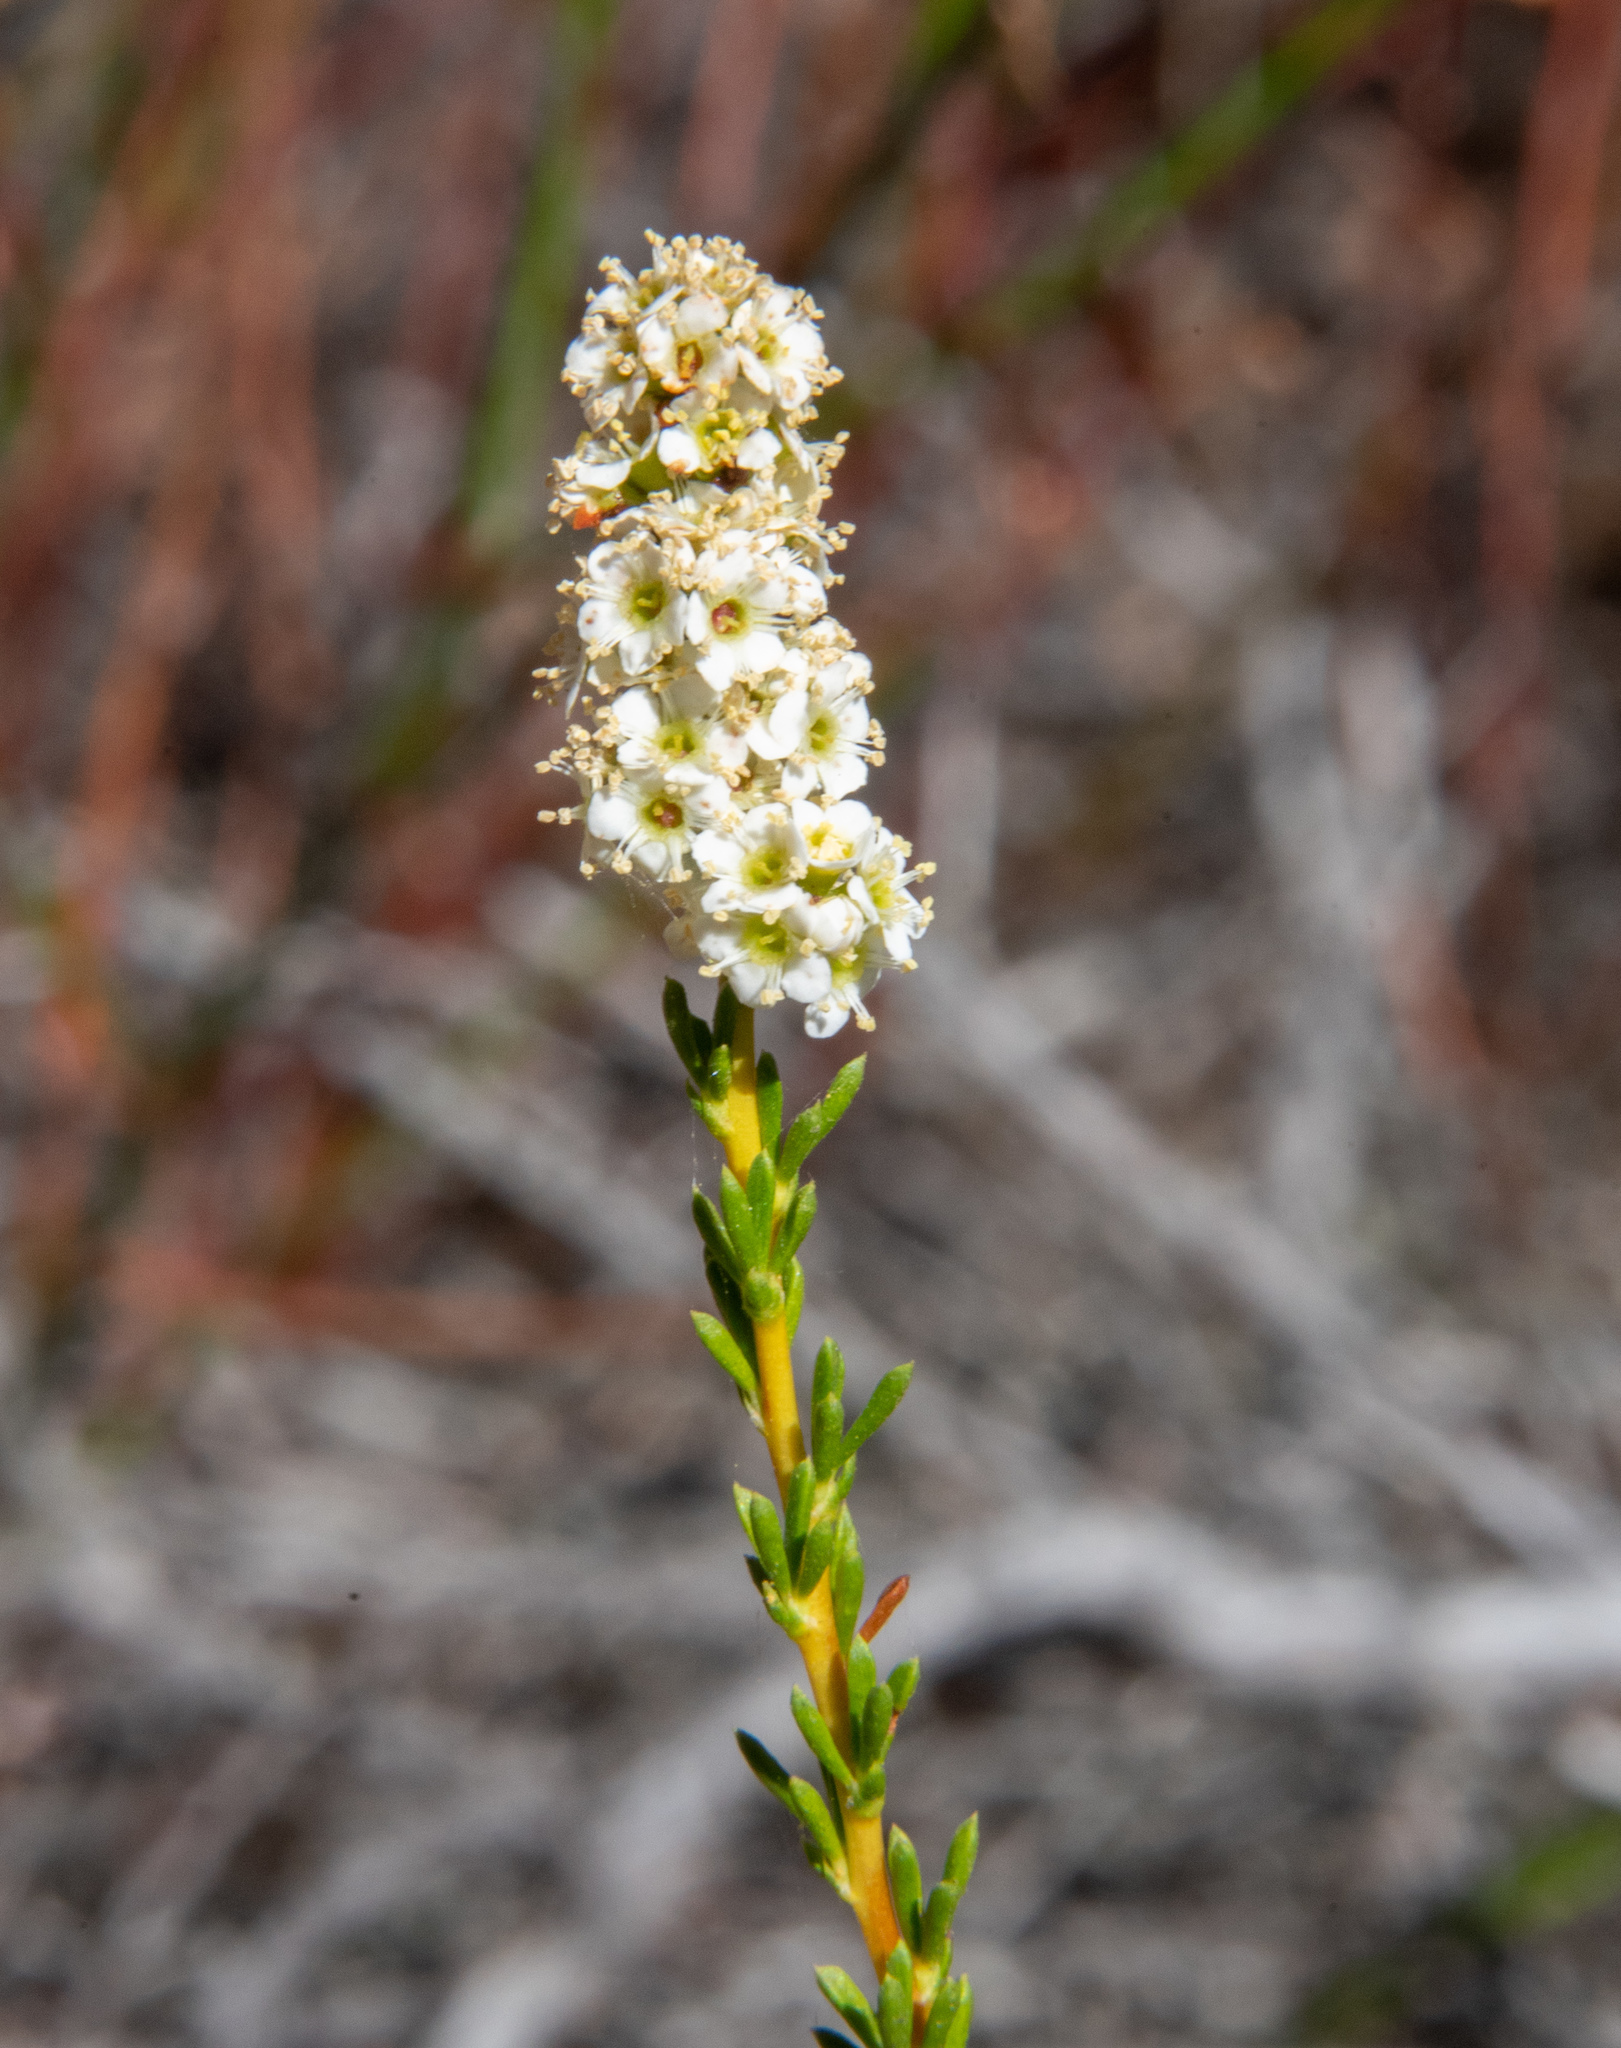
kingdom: Plantae
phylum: Tracheophyta
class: Magnoliopsida
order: Rosales
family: Rosaceae
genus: Adenostoma
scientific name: Adenostoma fasciculatum
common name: Chamise
